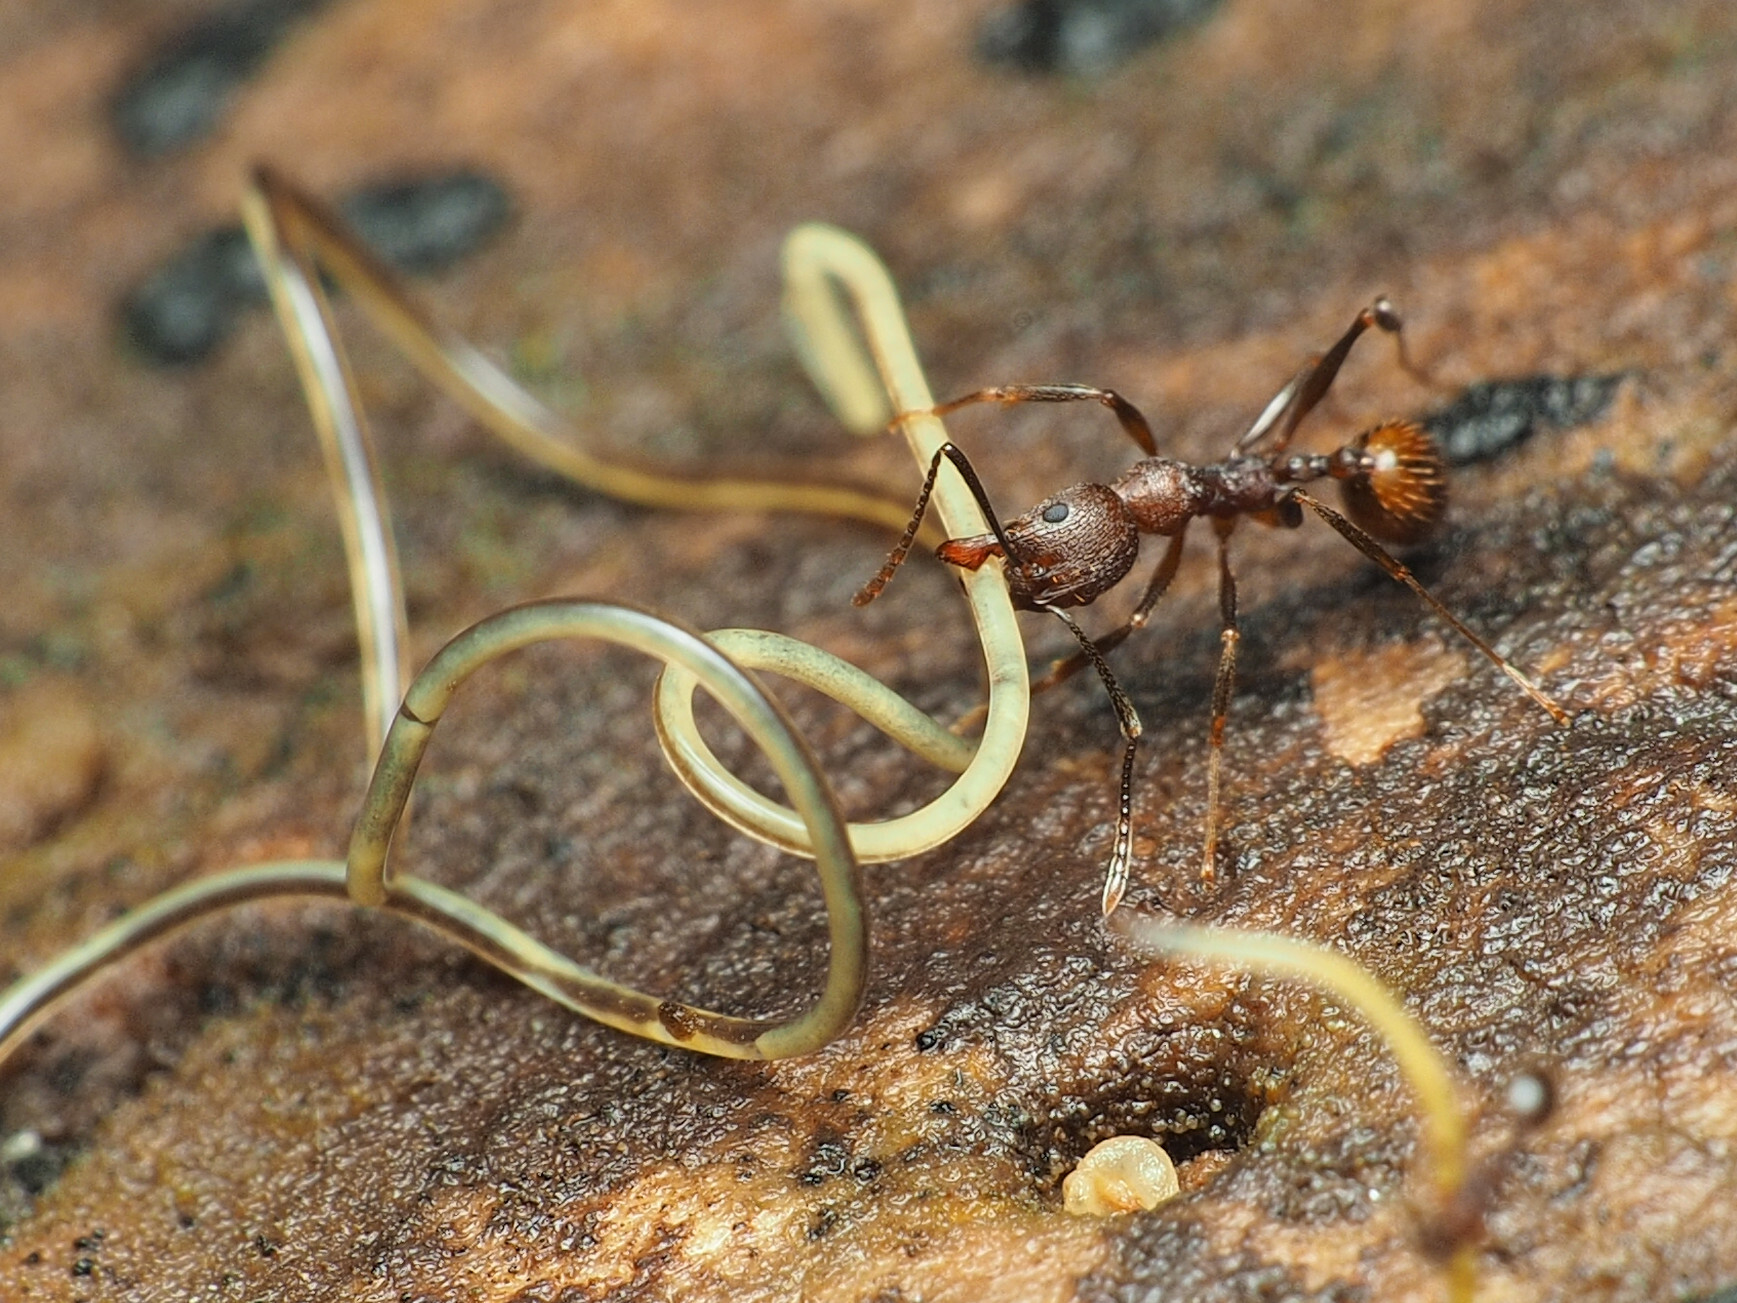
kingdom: Animalia
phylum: Arthropoda
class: Insecta
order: Hymenoptera
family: Formicidae
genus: Aphaenogaster
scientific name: Aphaenogaster fulva
